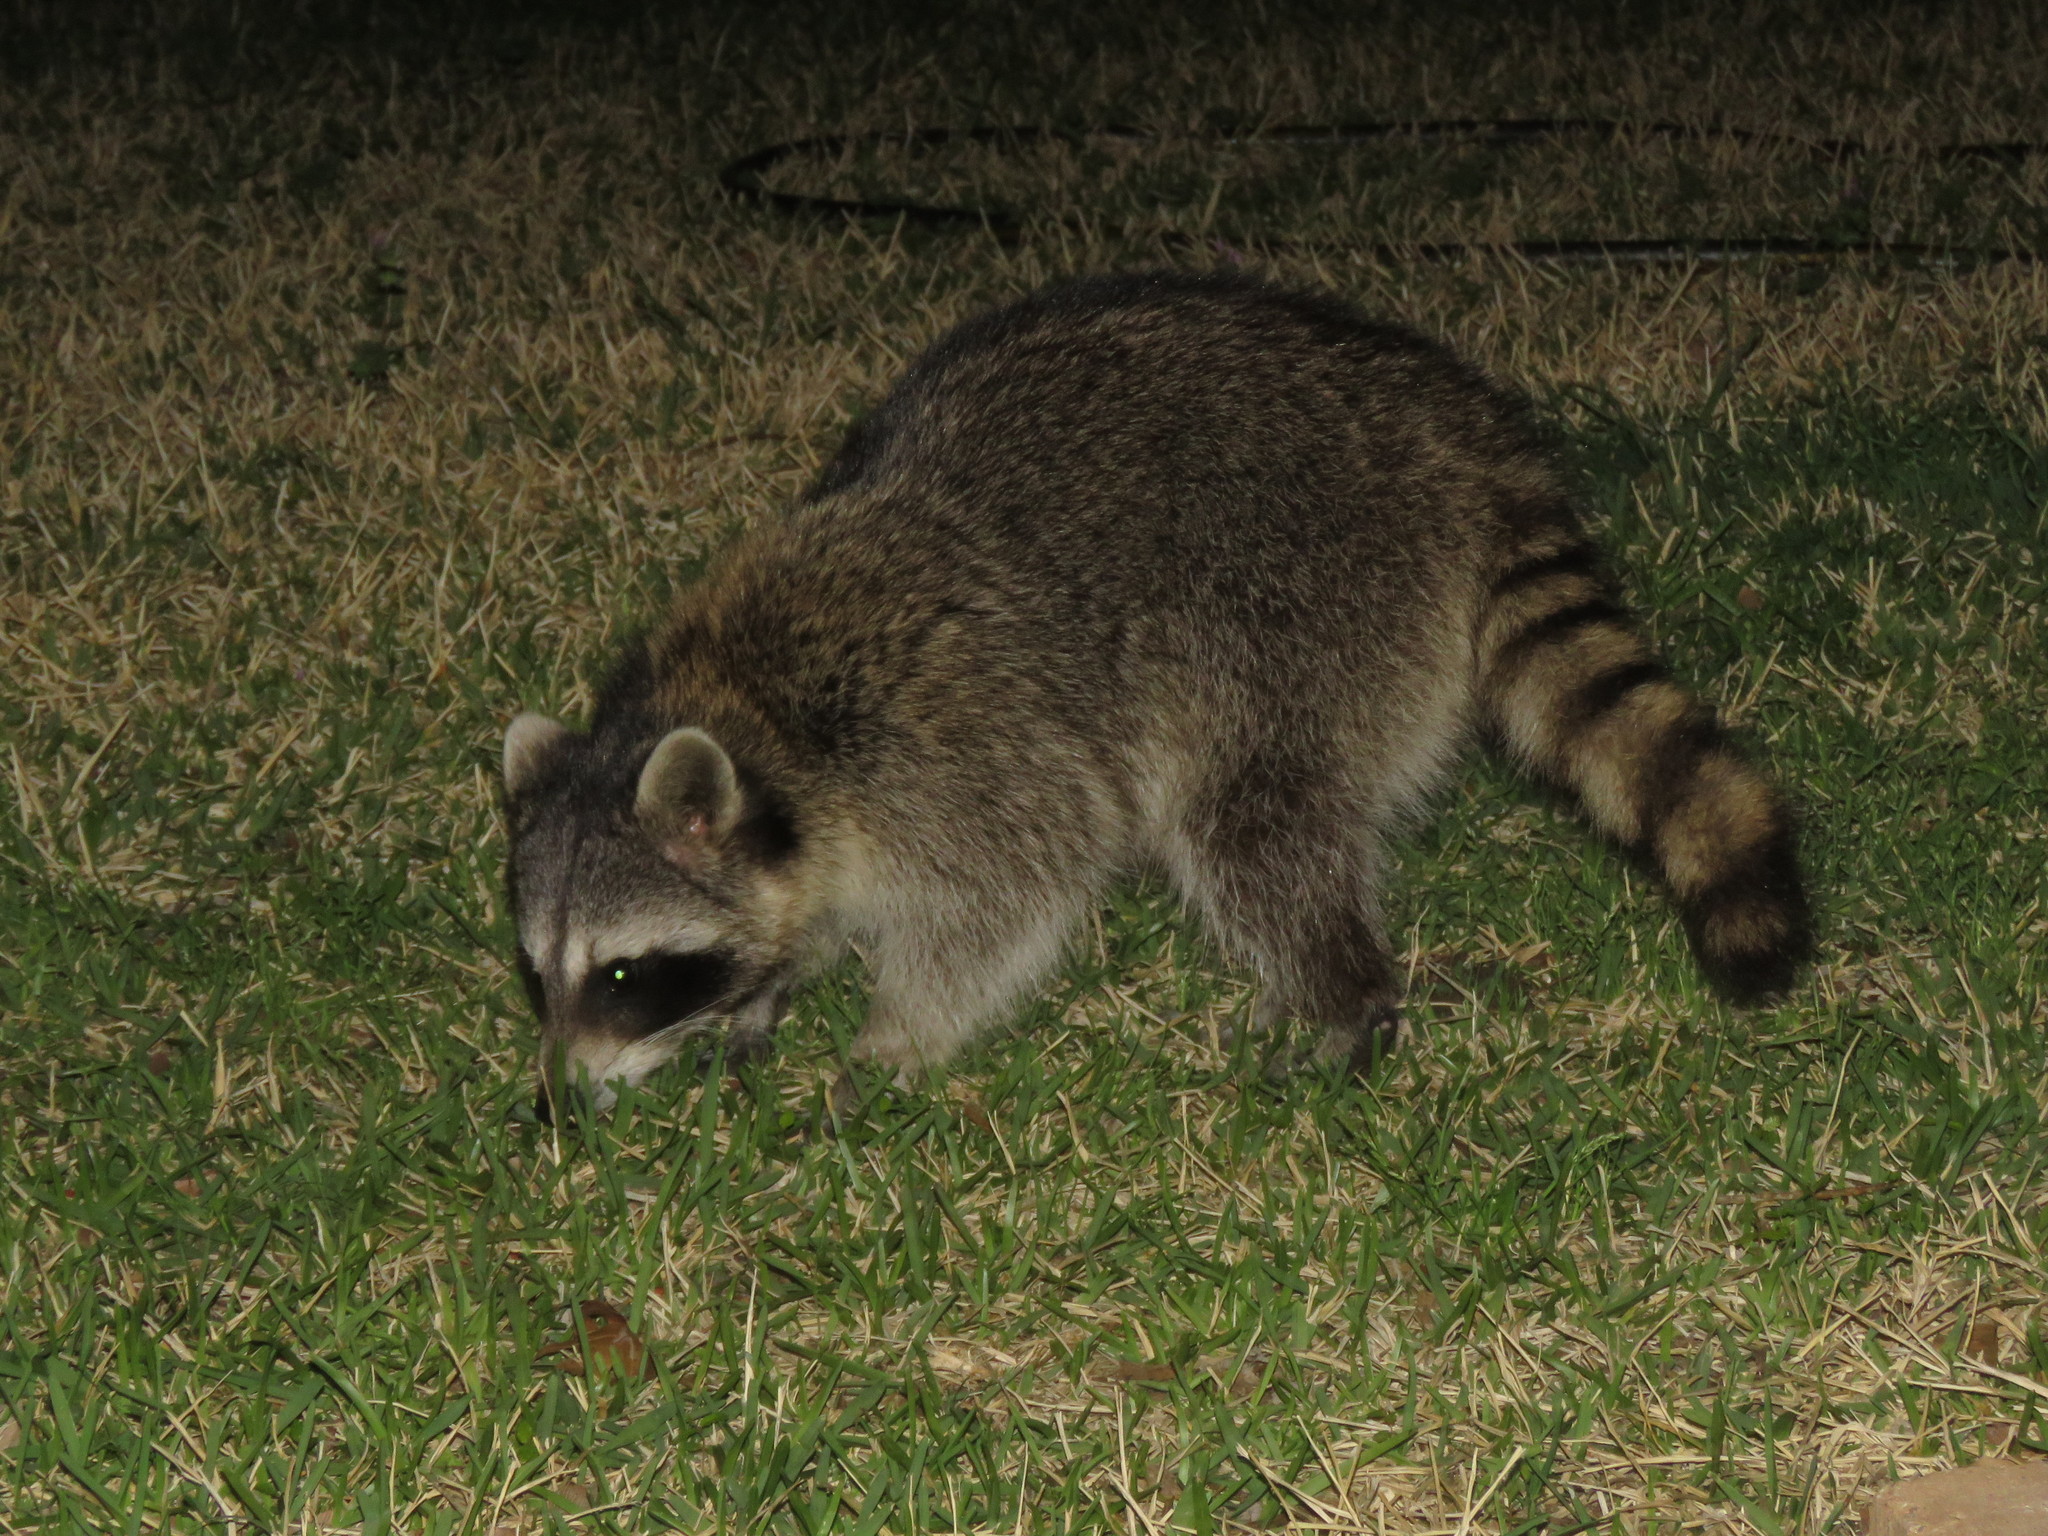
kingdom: Animalia
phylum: Chordata
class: Mammalia
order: Carnivora
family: Procyonidae
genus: Procyon
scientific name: Procyon lotor
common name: Raccoon
